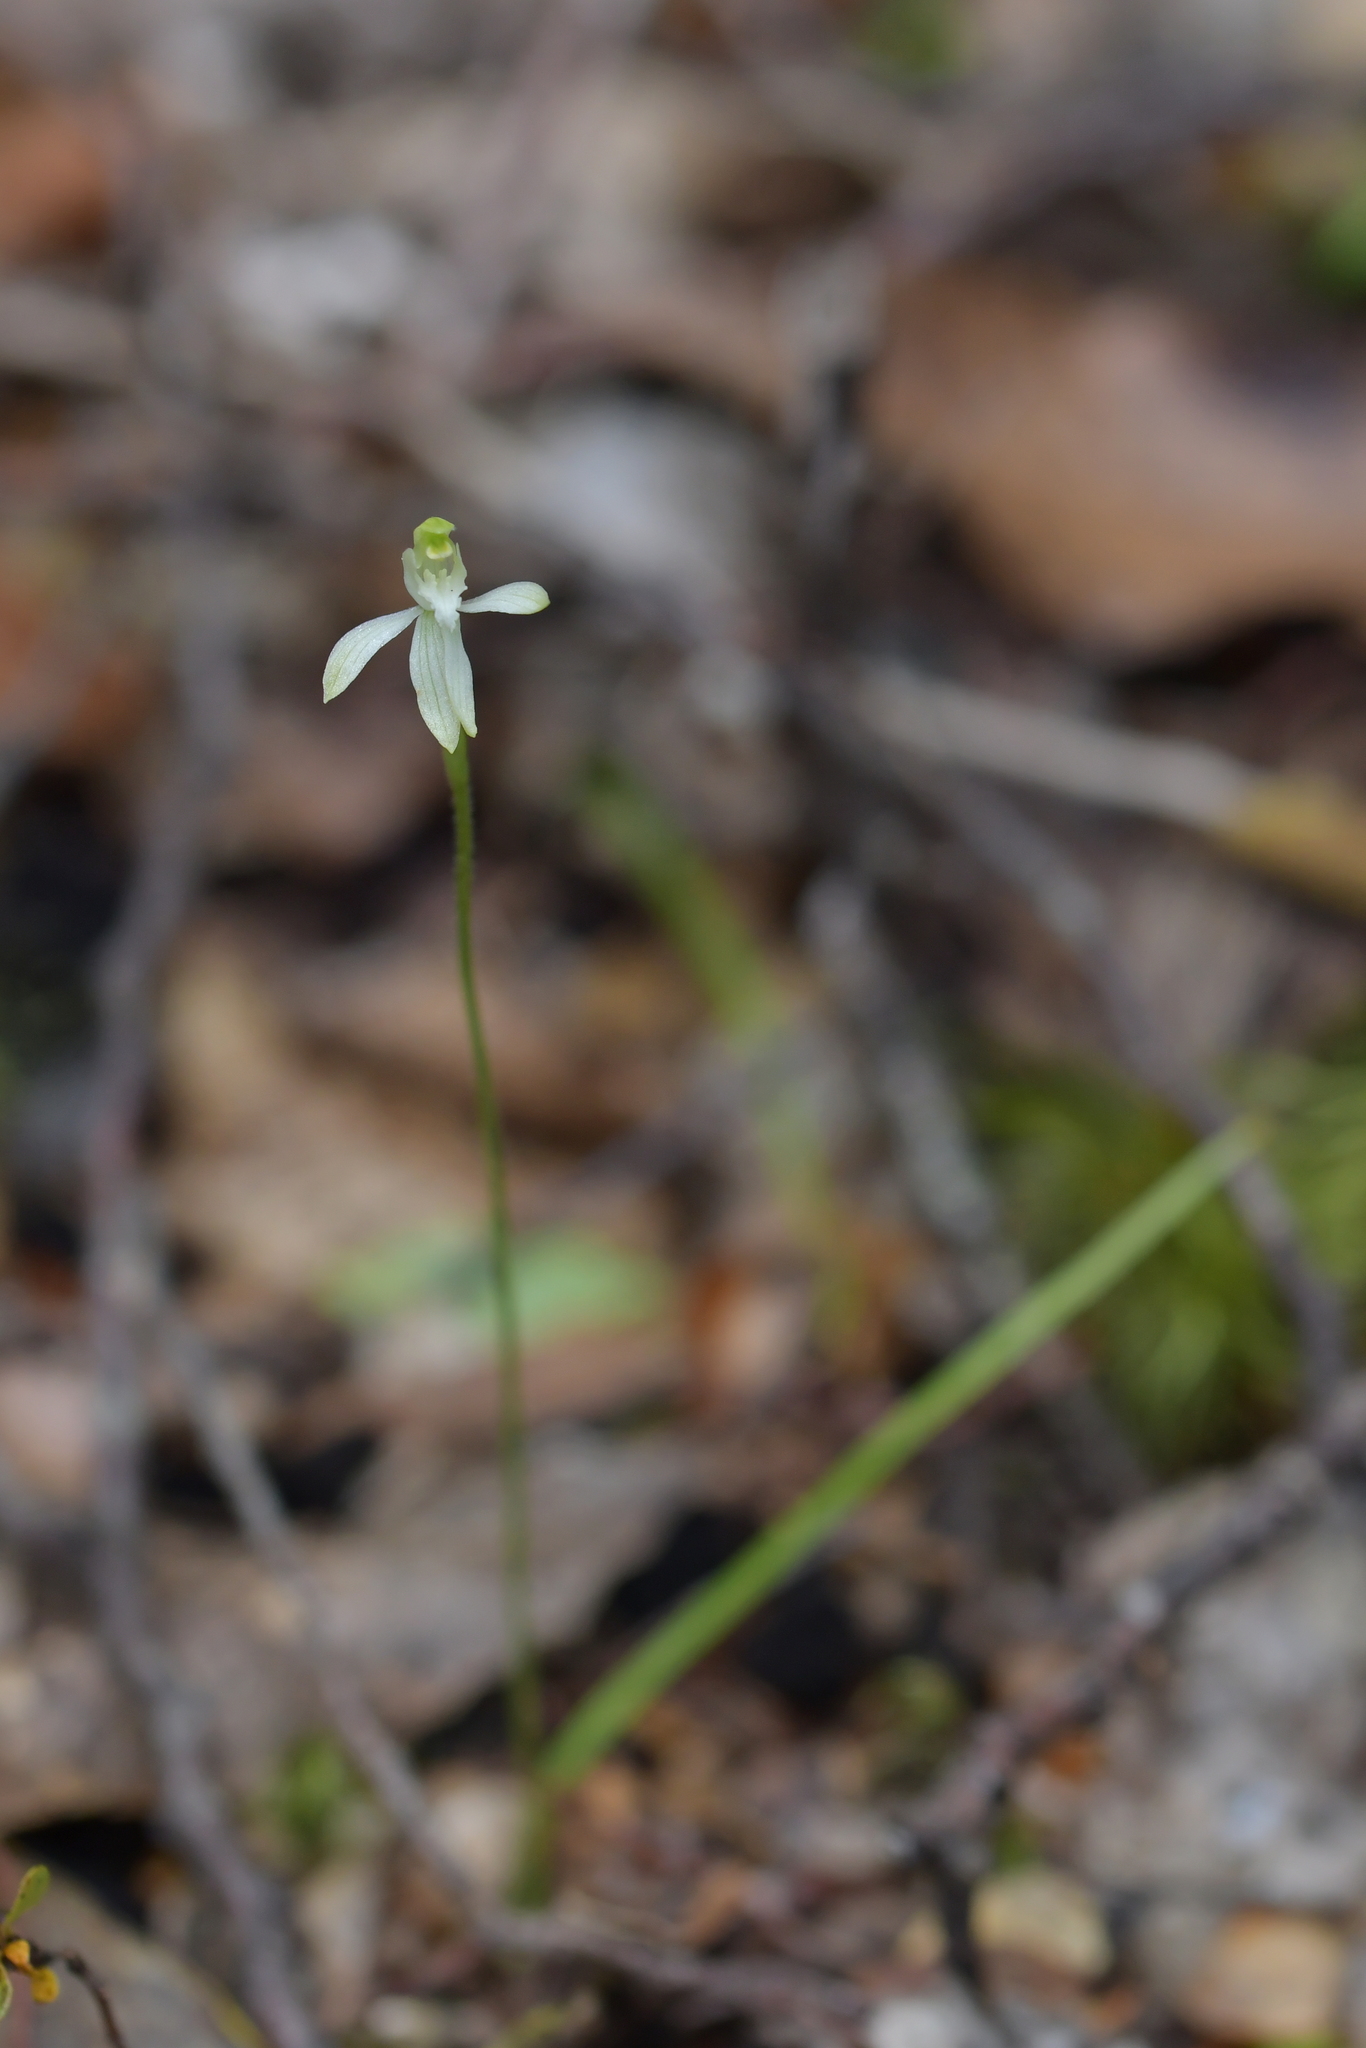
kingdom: Plantae
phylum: Tracheophyta
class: Liliopsida
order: Asparagales
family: Orchidaceae
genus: Caladenia
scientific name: Caladenia nothofageti
